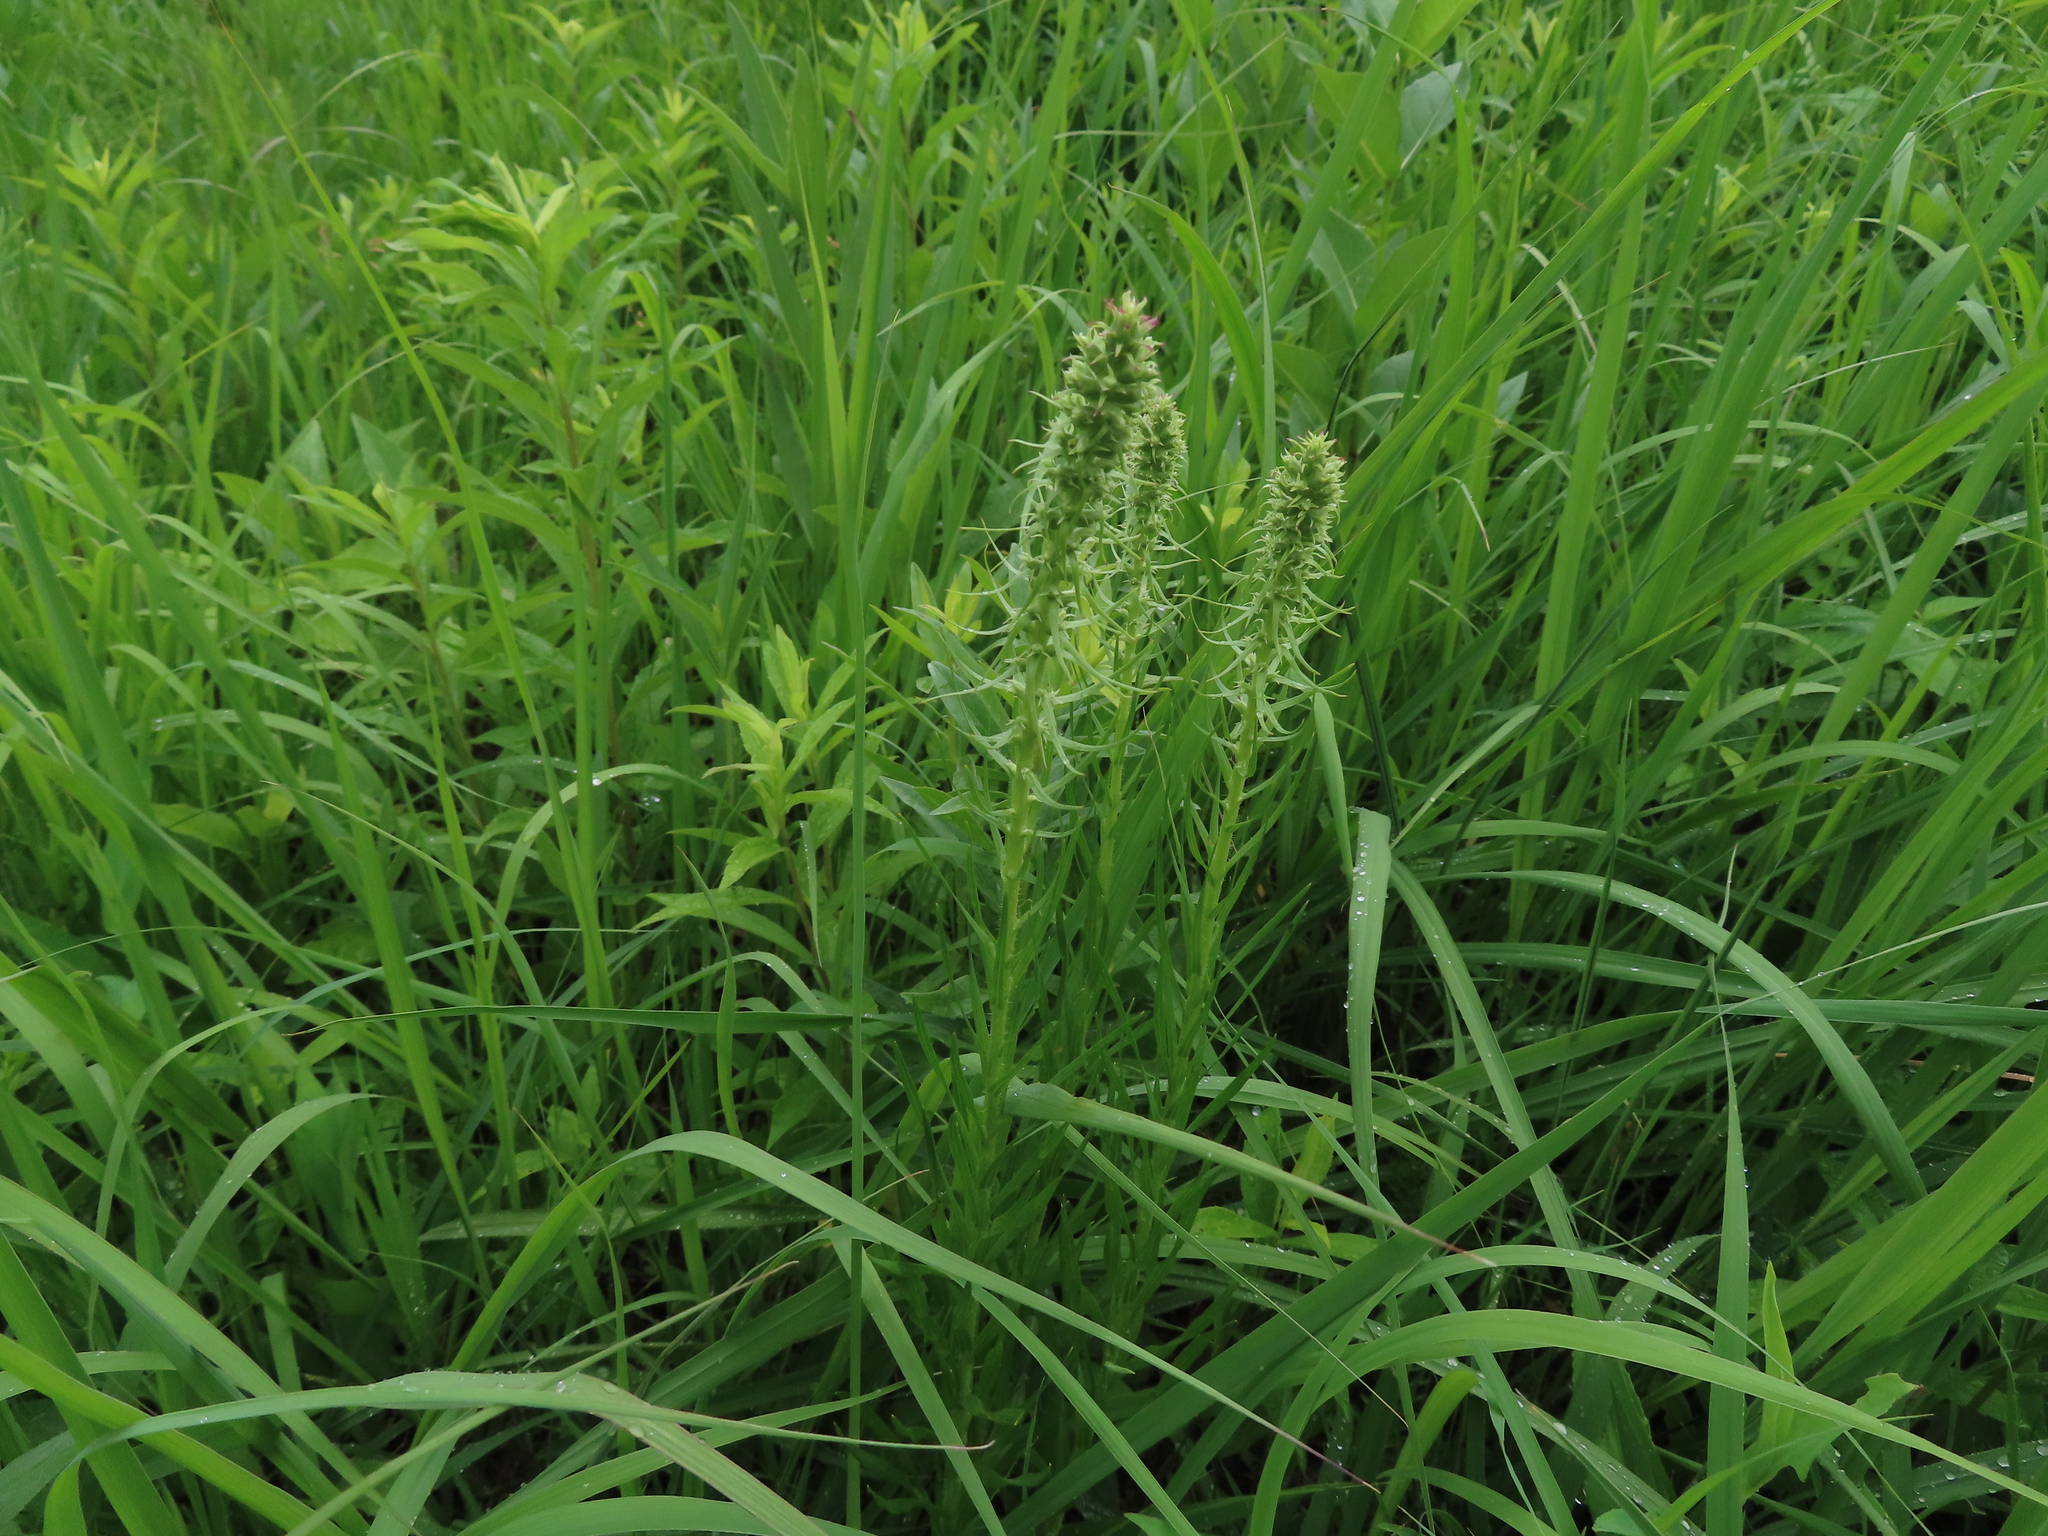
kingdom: Plantae
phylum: Tracheophyta
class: Magnoliopsida
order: Asterales
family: Asteraceae
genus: Liatris
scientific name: Liatris pycnostachya
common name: Cattail gayfeather
